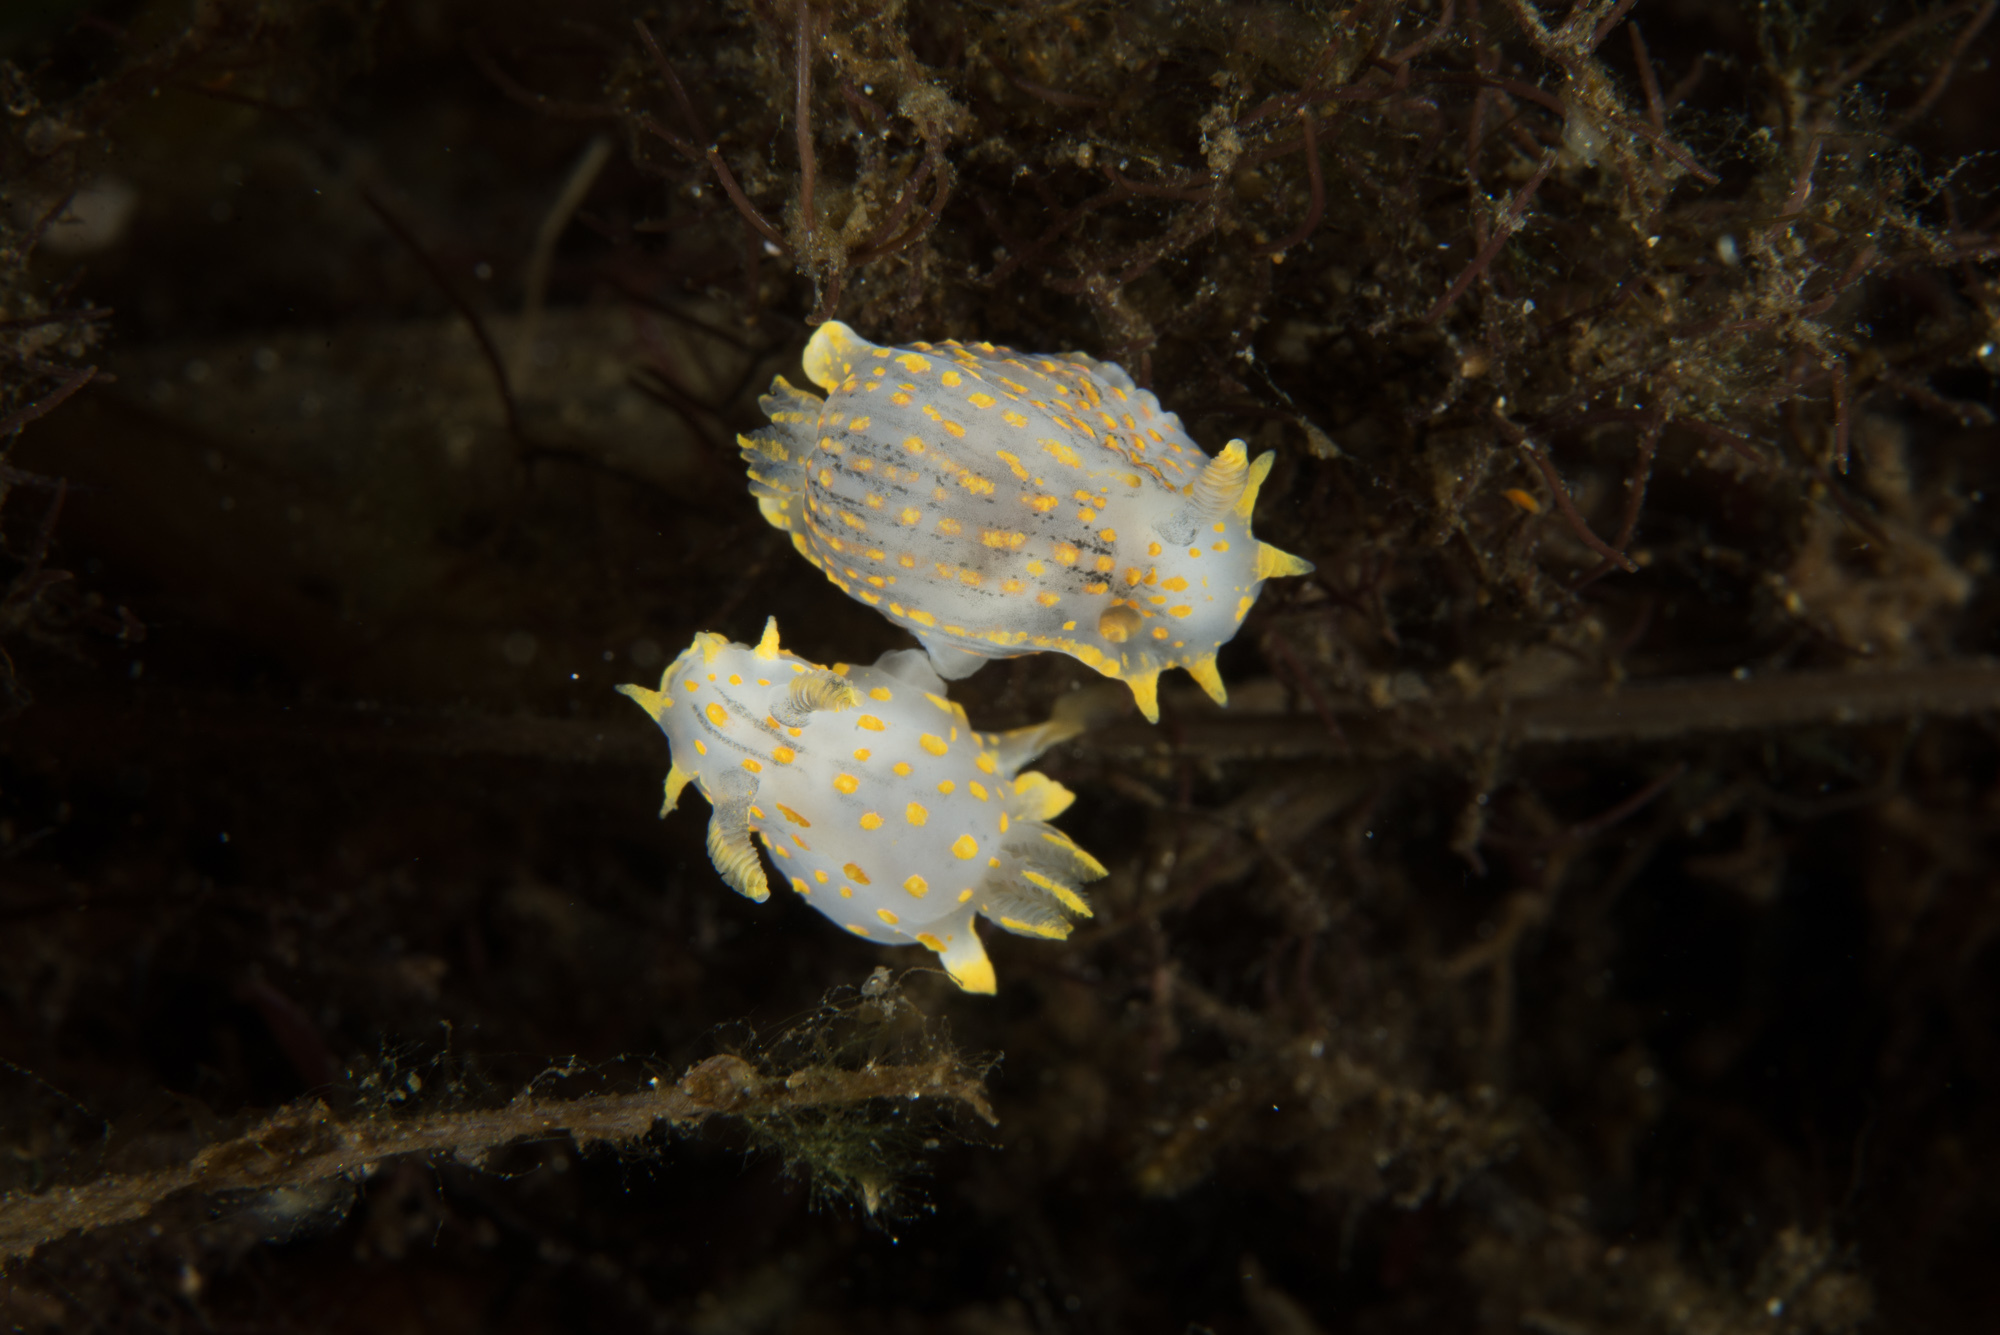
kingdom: Animalia
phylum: Mollusca
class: Gastropoda
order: Nudibranchia
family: Polyceridae
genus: Polycera
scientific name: Polycera quadrilineata
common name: Four-striped polycera
